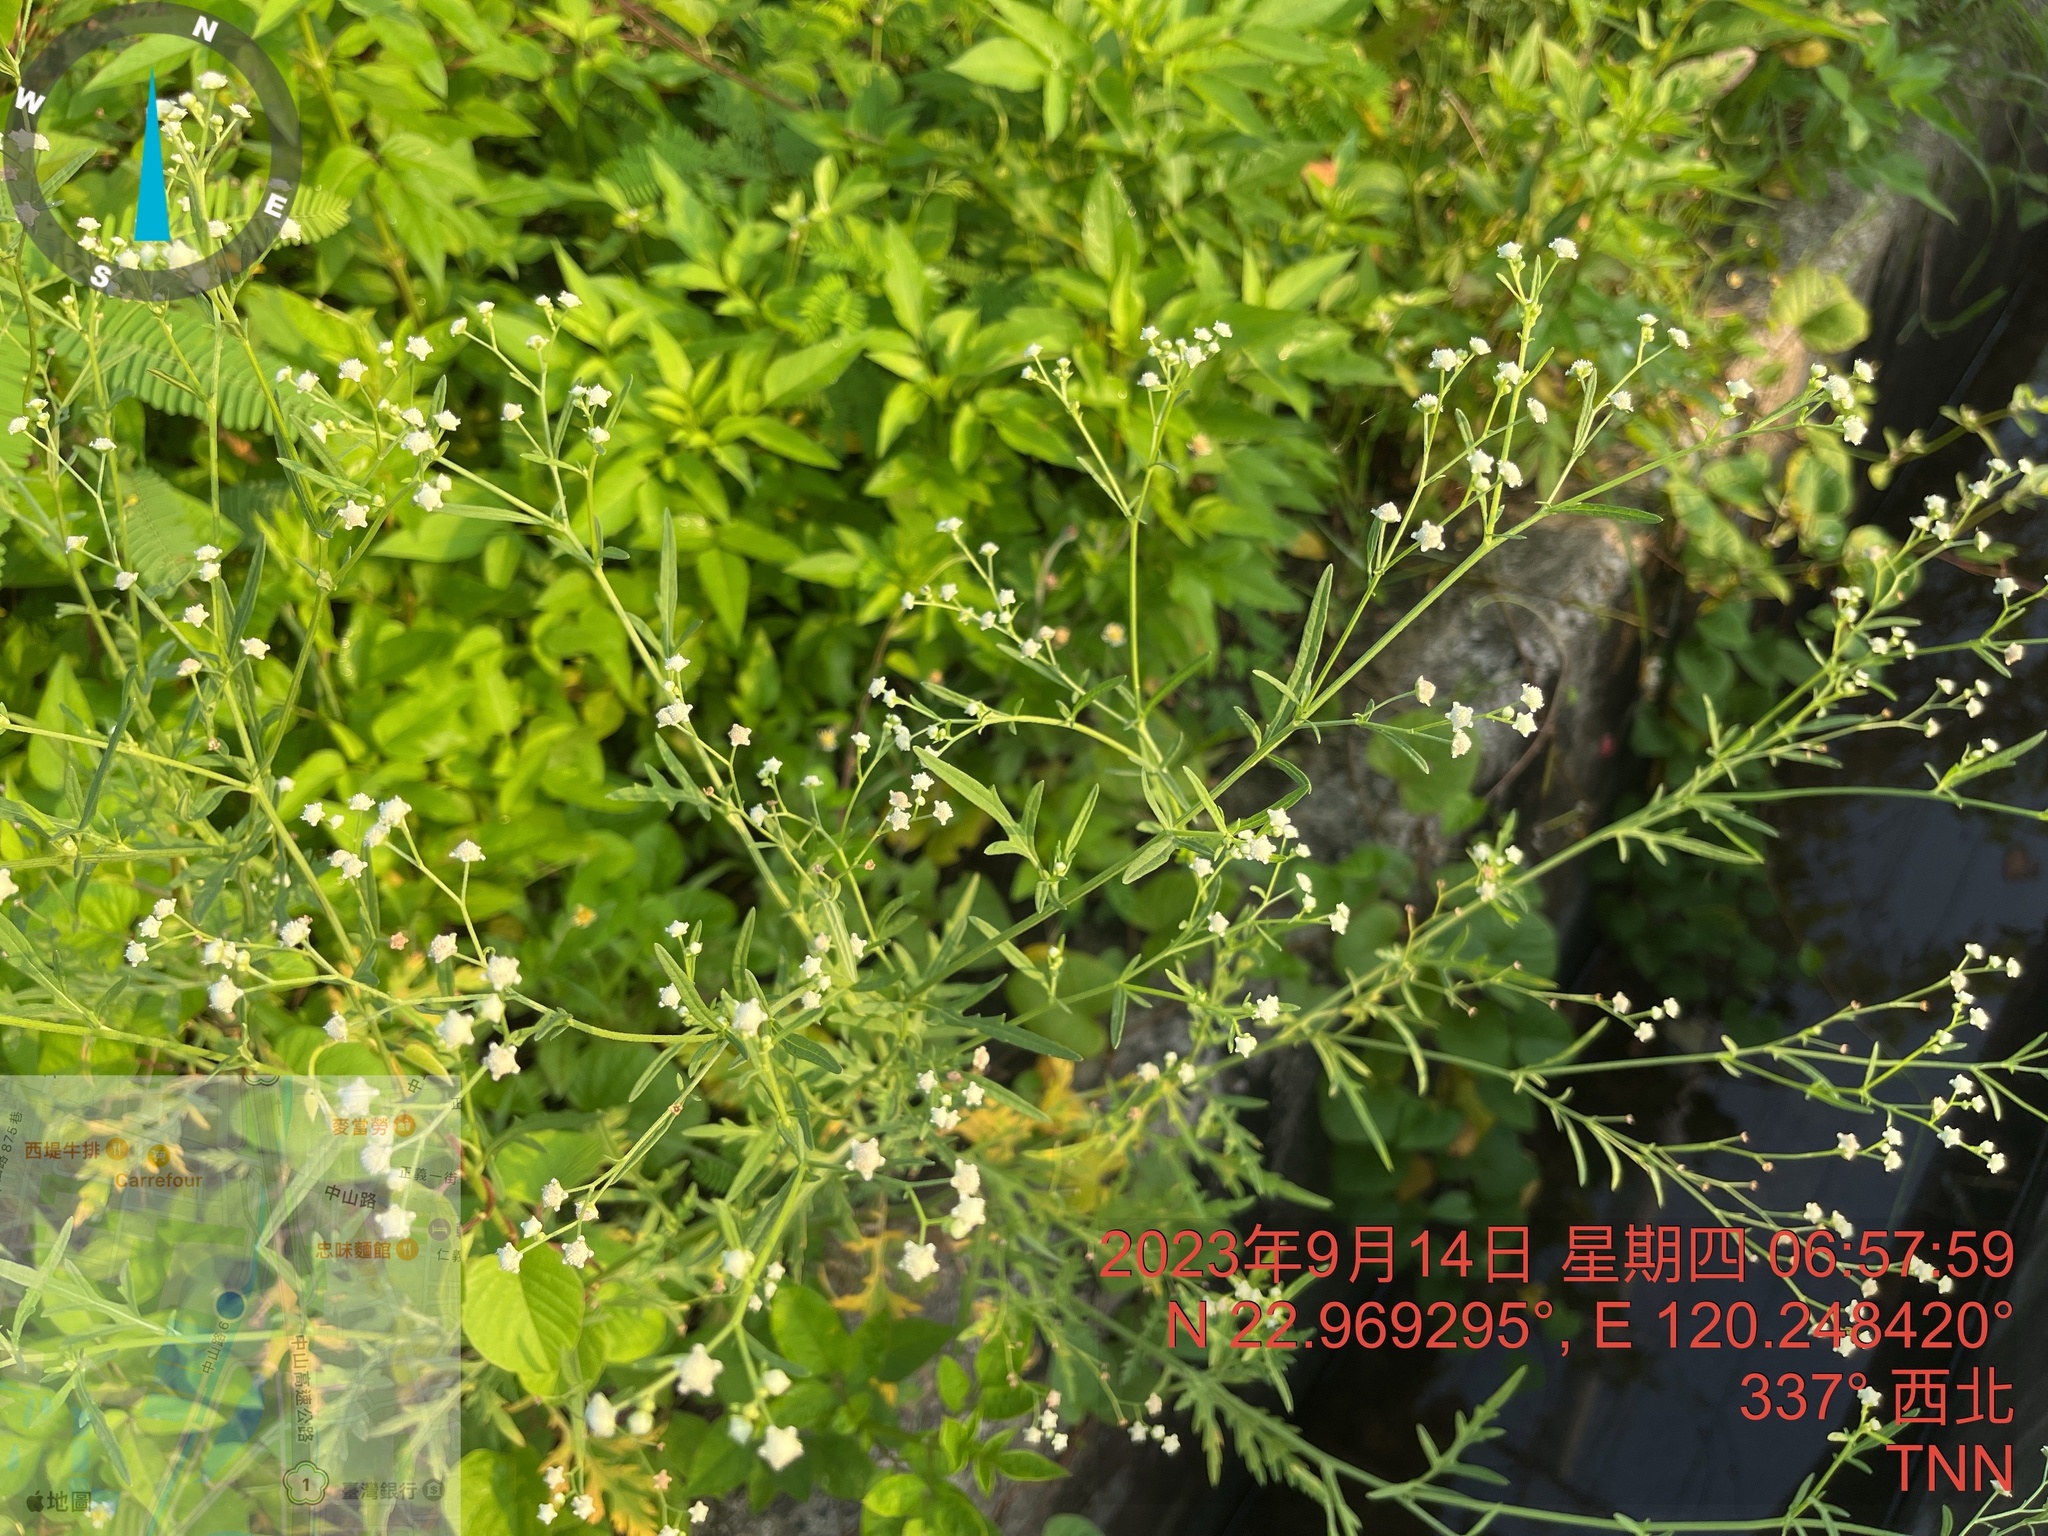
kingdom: Plantae
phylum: Tracheophyta
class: Magnoliopsida
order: Asterales
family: Asteraceae
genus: Parthenium
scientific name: Parthenium hysterophorus
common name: Santa maria feverfew
